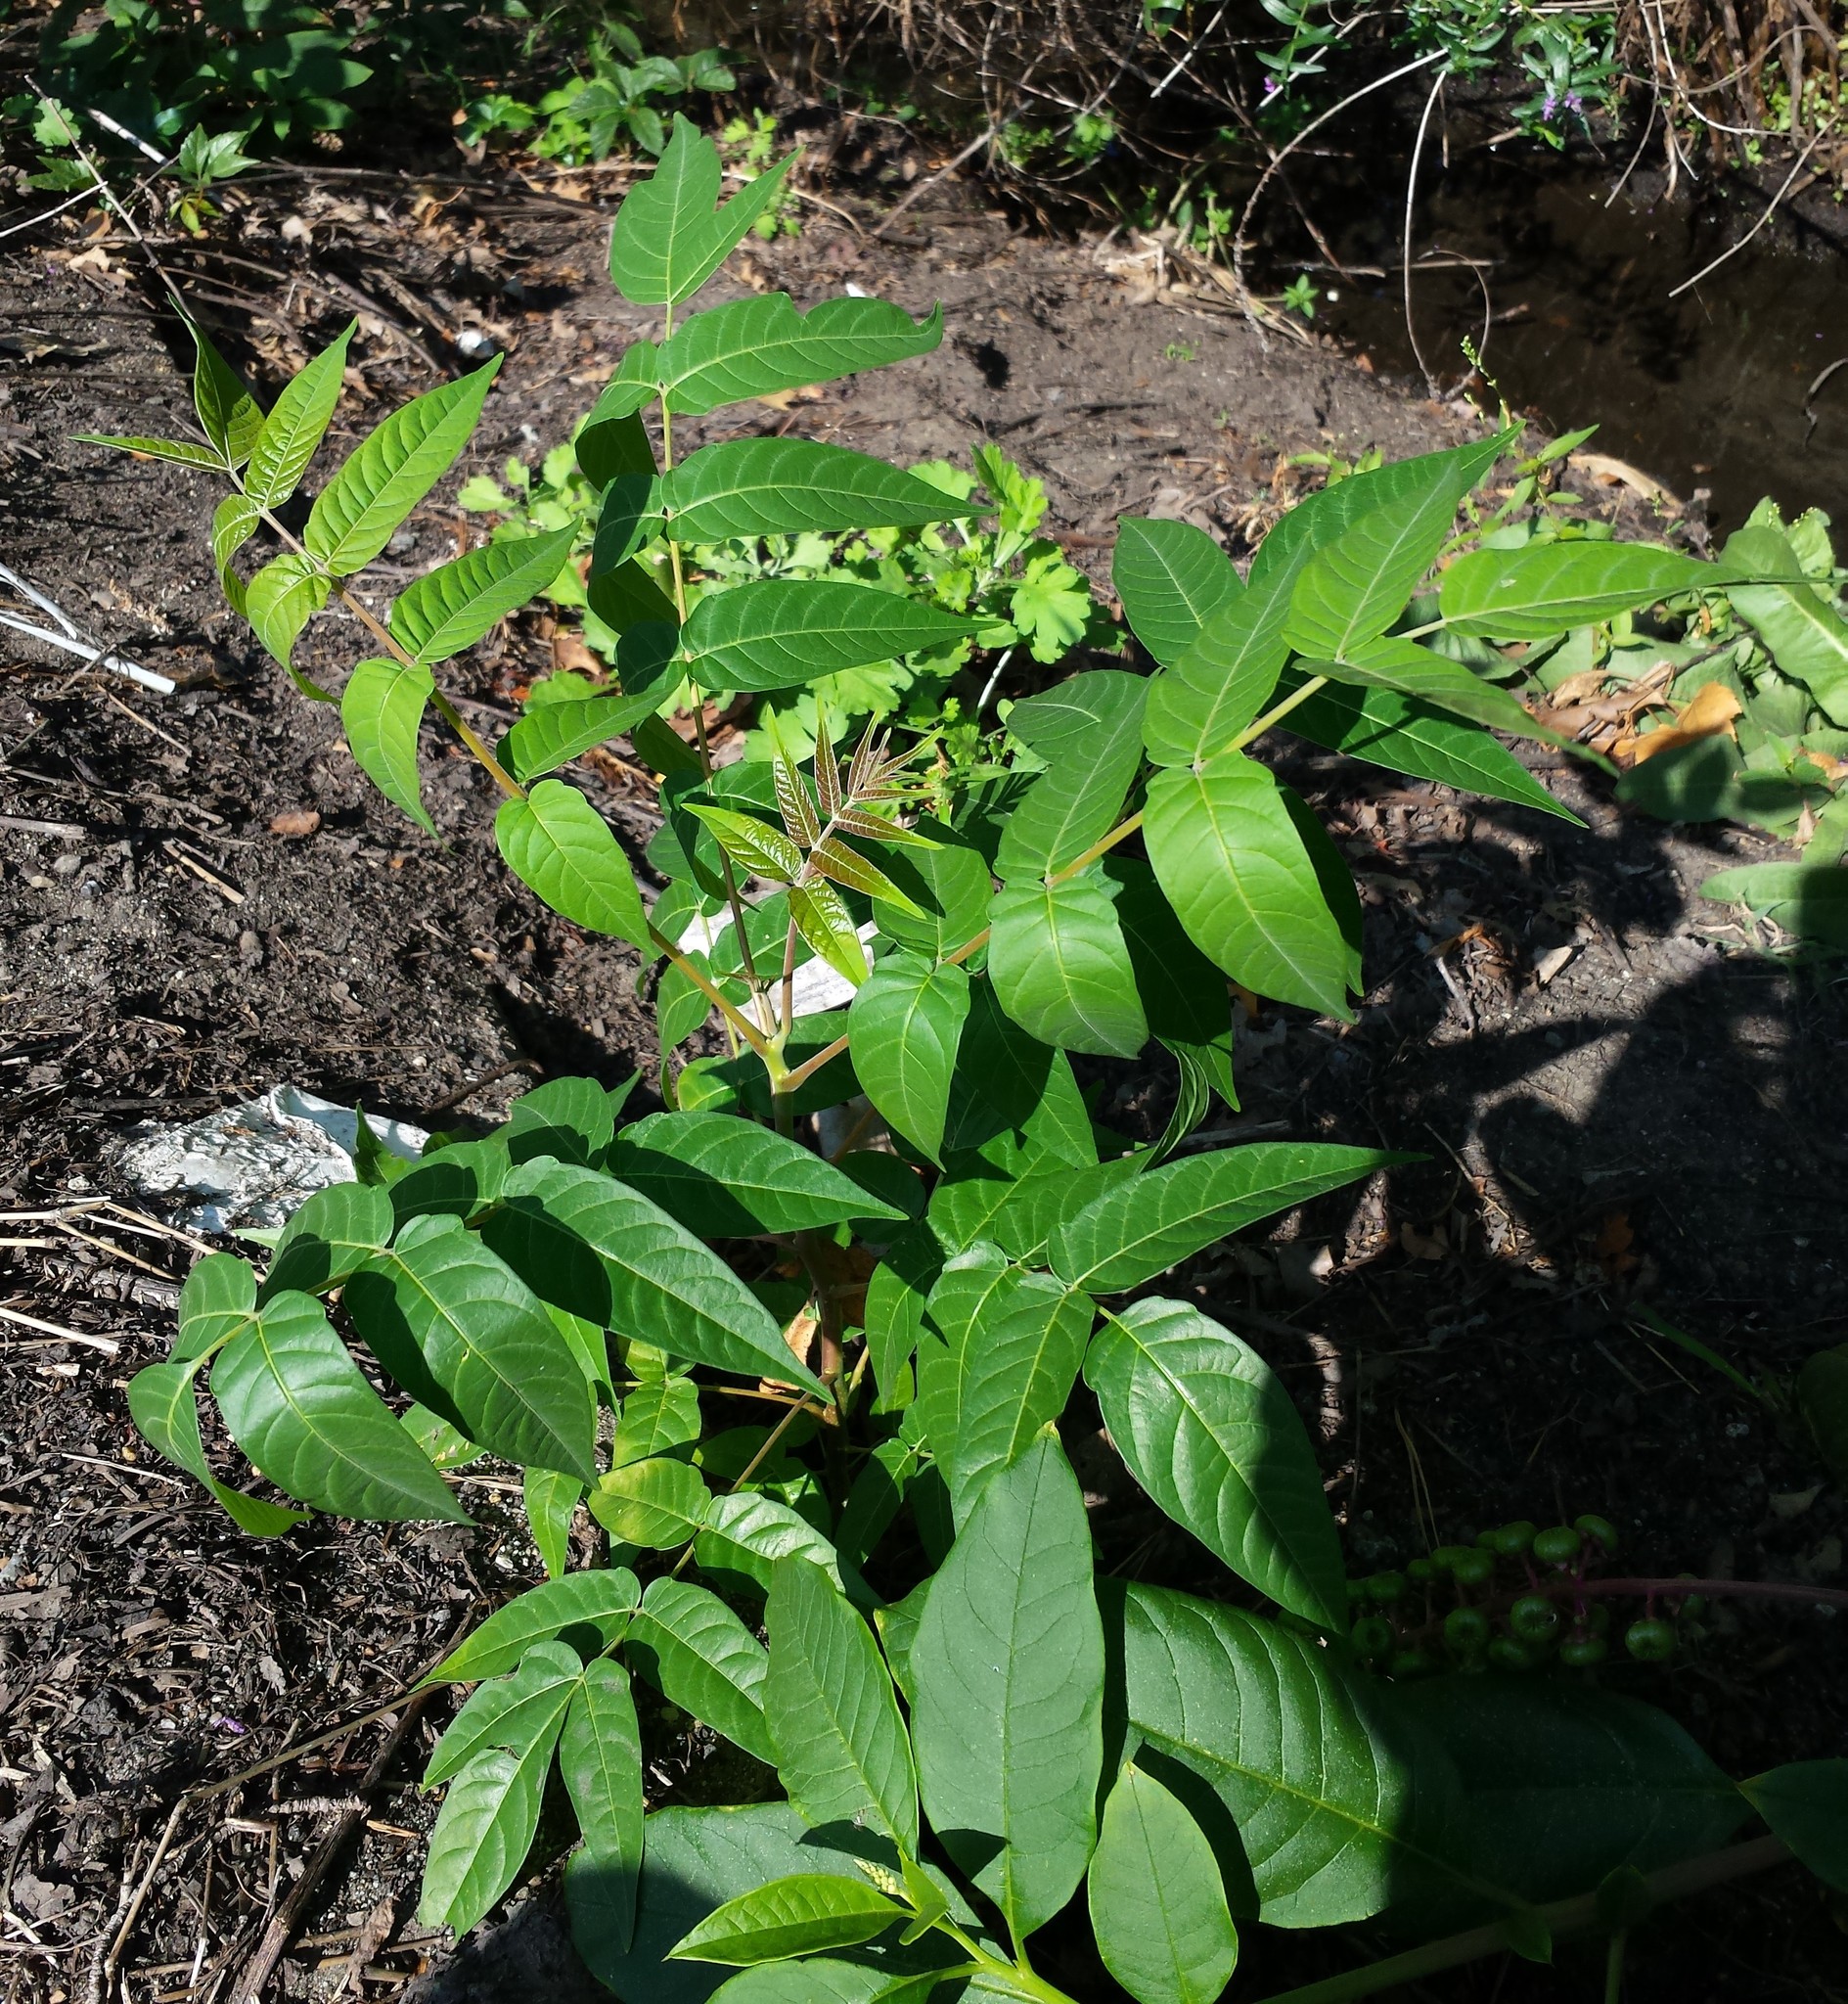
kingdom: Plantae
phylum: Tracheophyta
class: Magnoliopsida
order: Sapindales
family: Simaroubaceae
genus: Ailanthus
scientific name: Ailanthus altissima
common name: Tree-of-heaven
